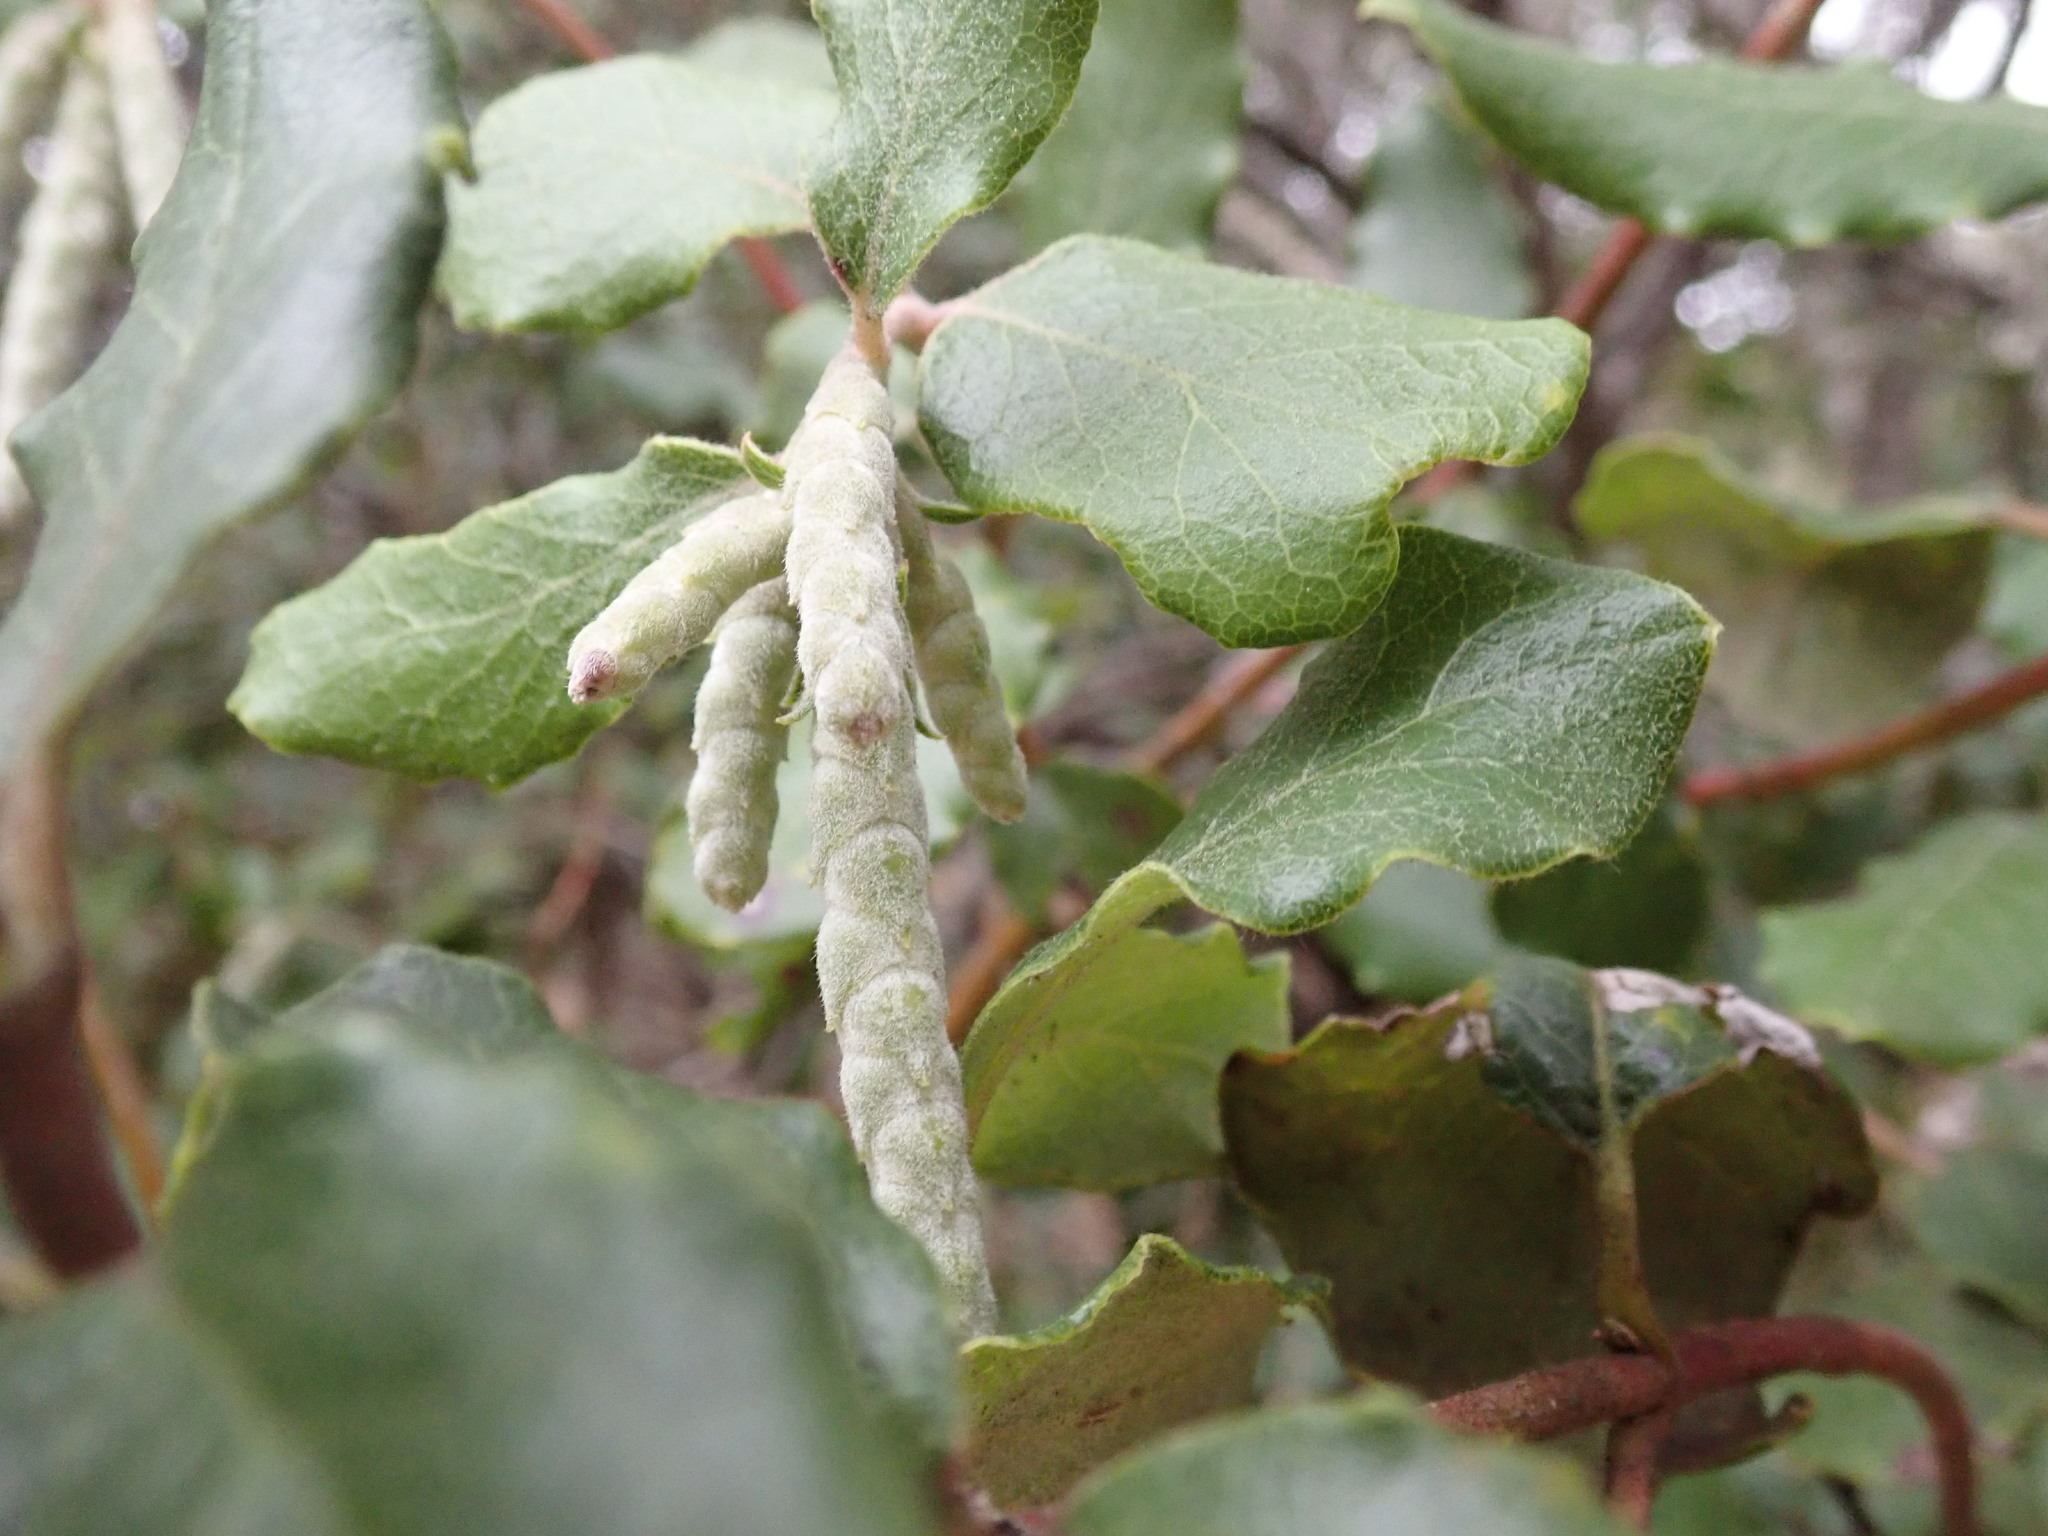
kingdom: Plantae
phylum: Tracheophyta
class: Magnoliopsida
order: Garryales
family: Garryaceae
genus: Garrya
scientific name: Garrya elliptica
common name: Silk-tassel
